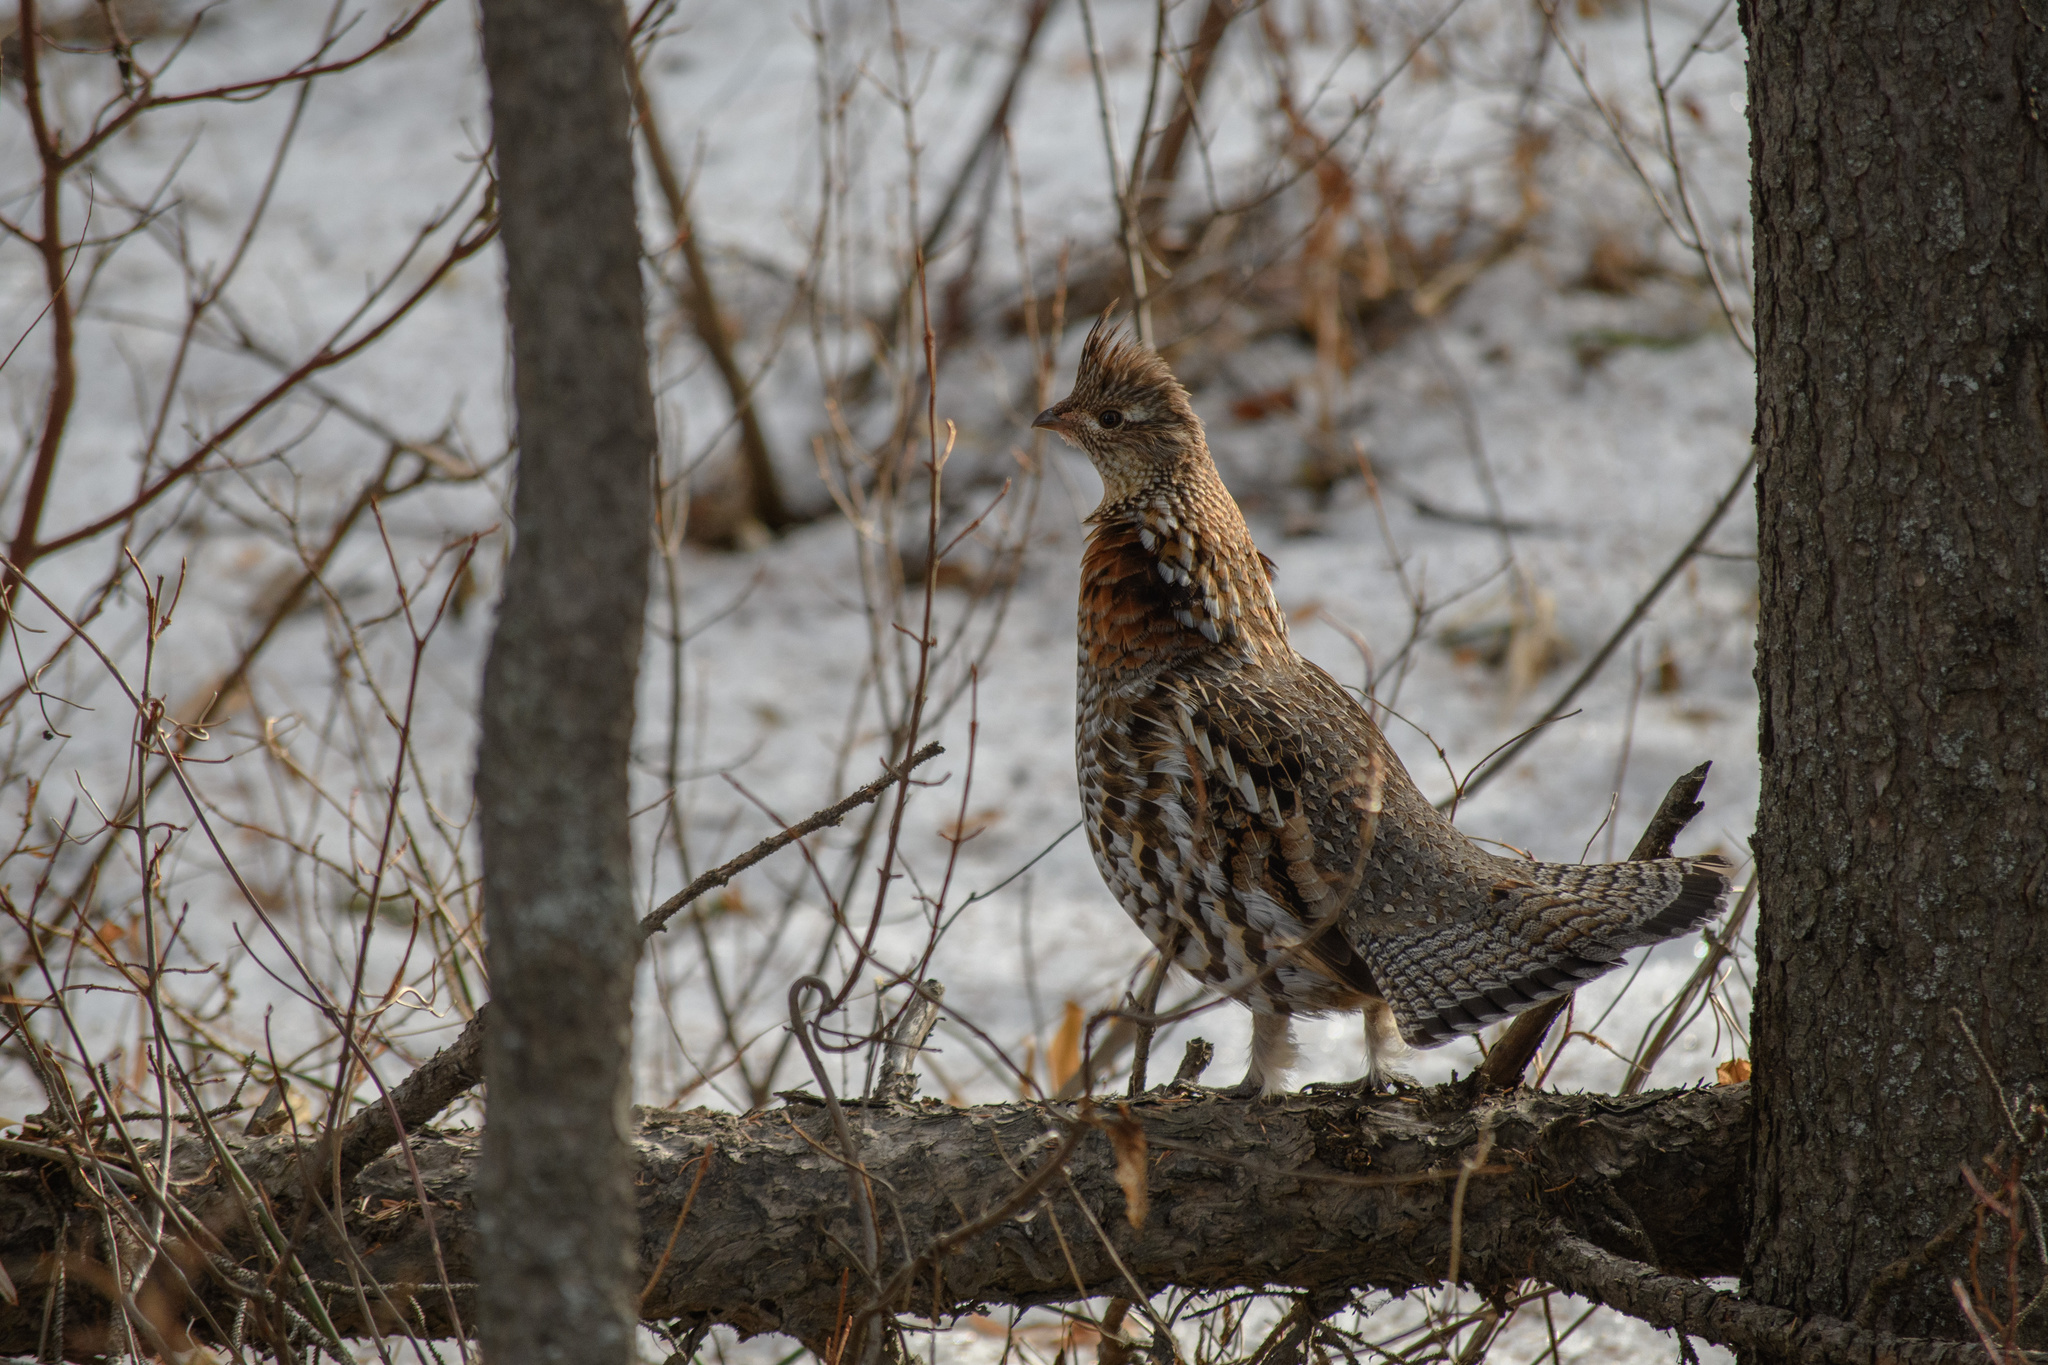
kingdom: Animalia
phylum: Chordata
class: Aves
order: Galliformes
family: Phasianidae
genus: Bonasa
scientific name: Bonasa umbellus
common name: Ruffed grouse
